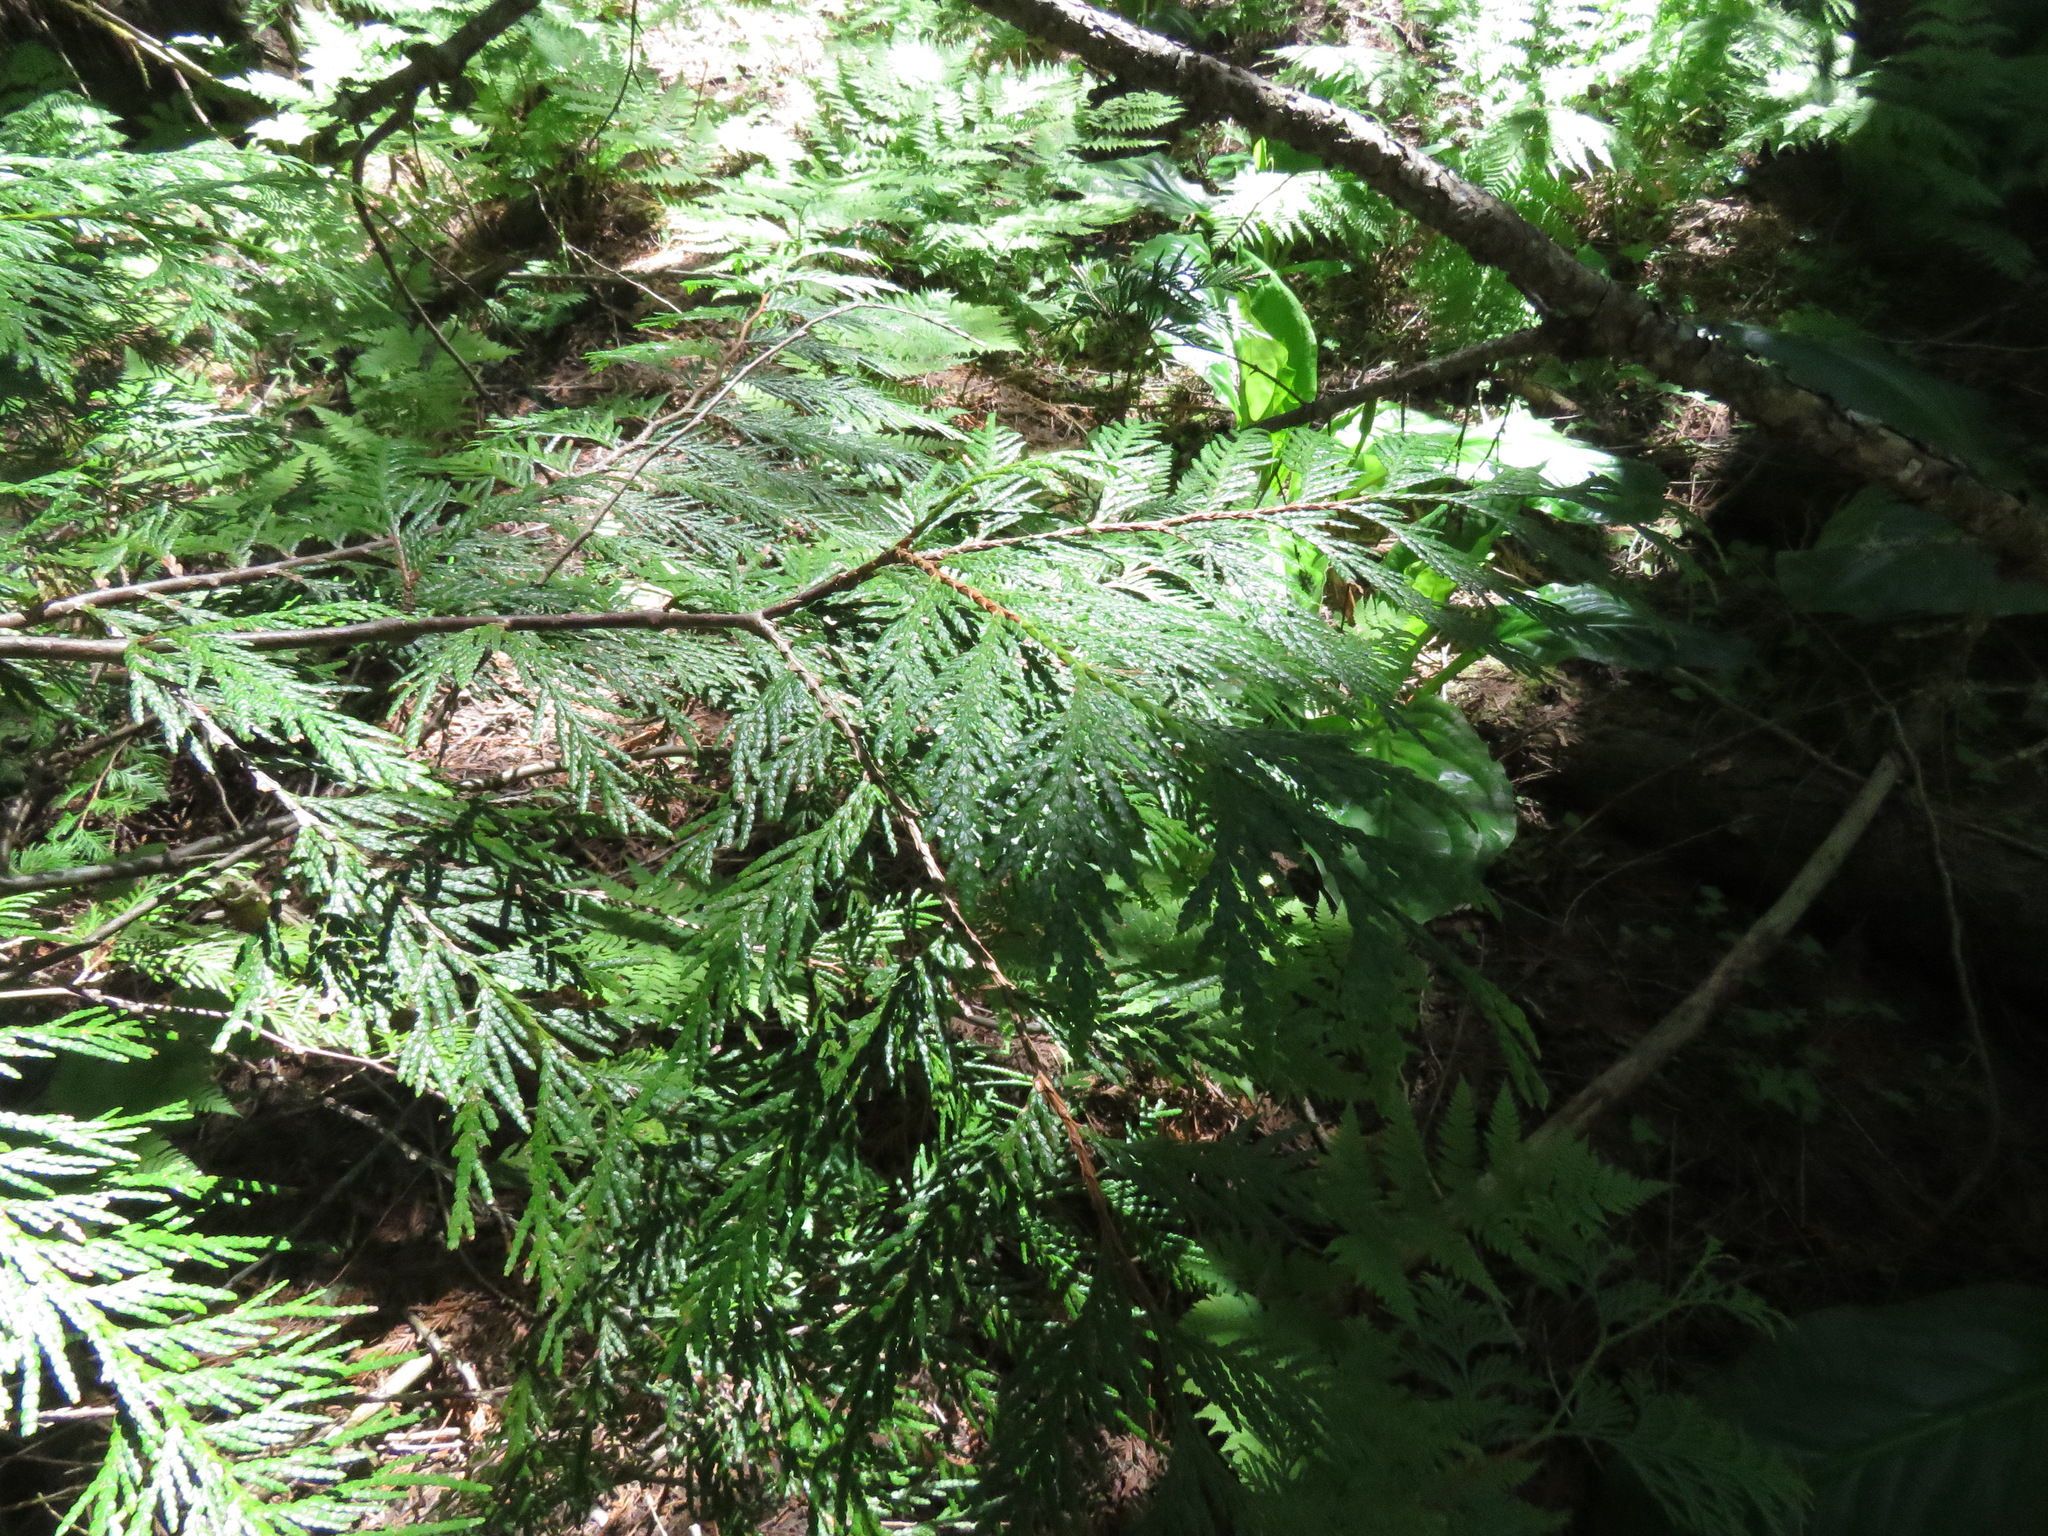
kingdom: Plantae
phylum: Tracheophyta
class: Pinopsida
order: Pinales
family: Cupressaceae
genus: Thuja
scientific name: Thuja plicata
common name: Western red-cedar
